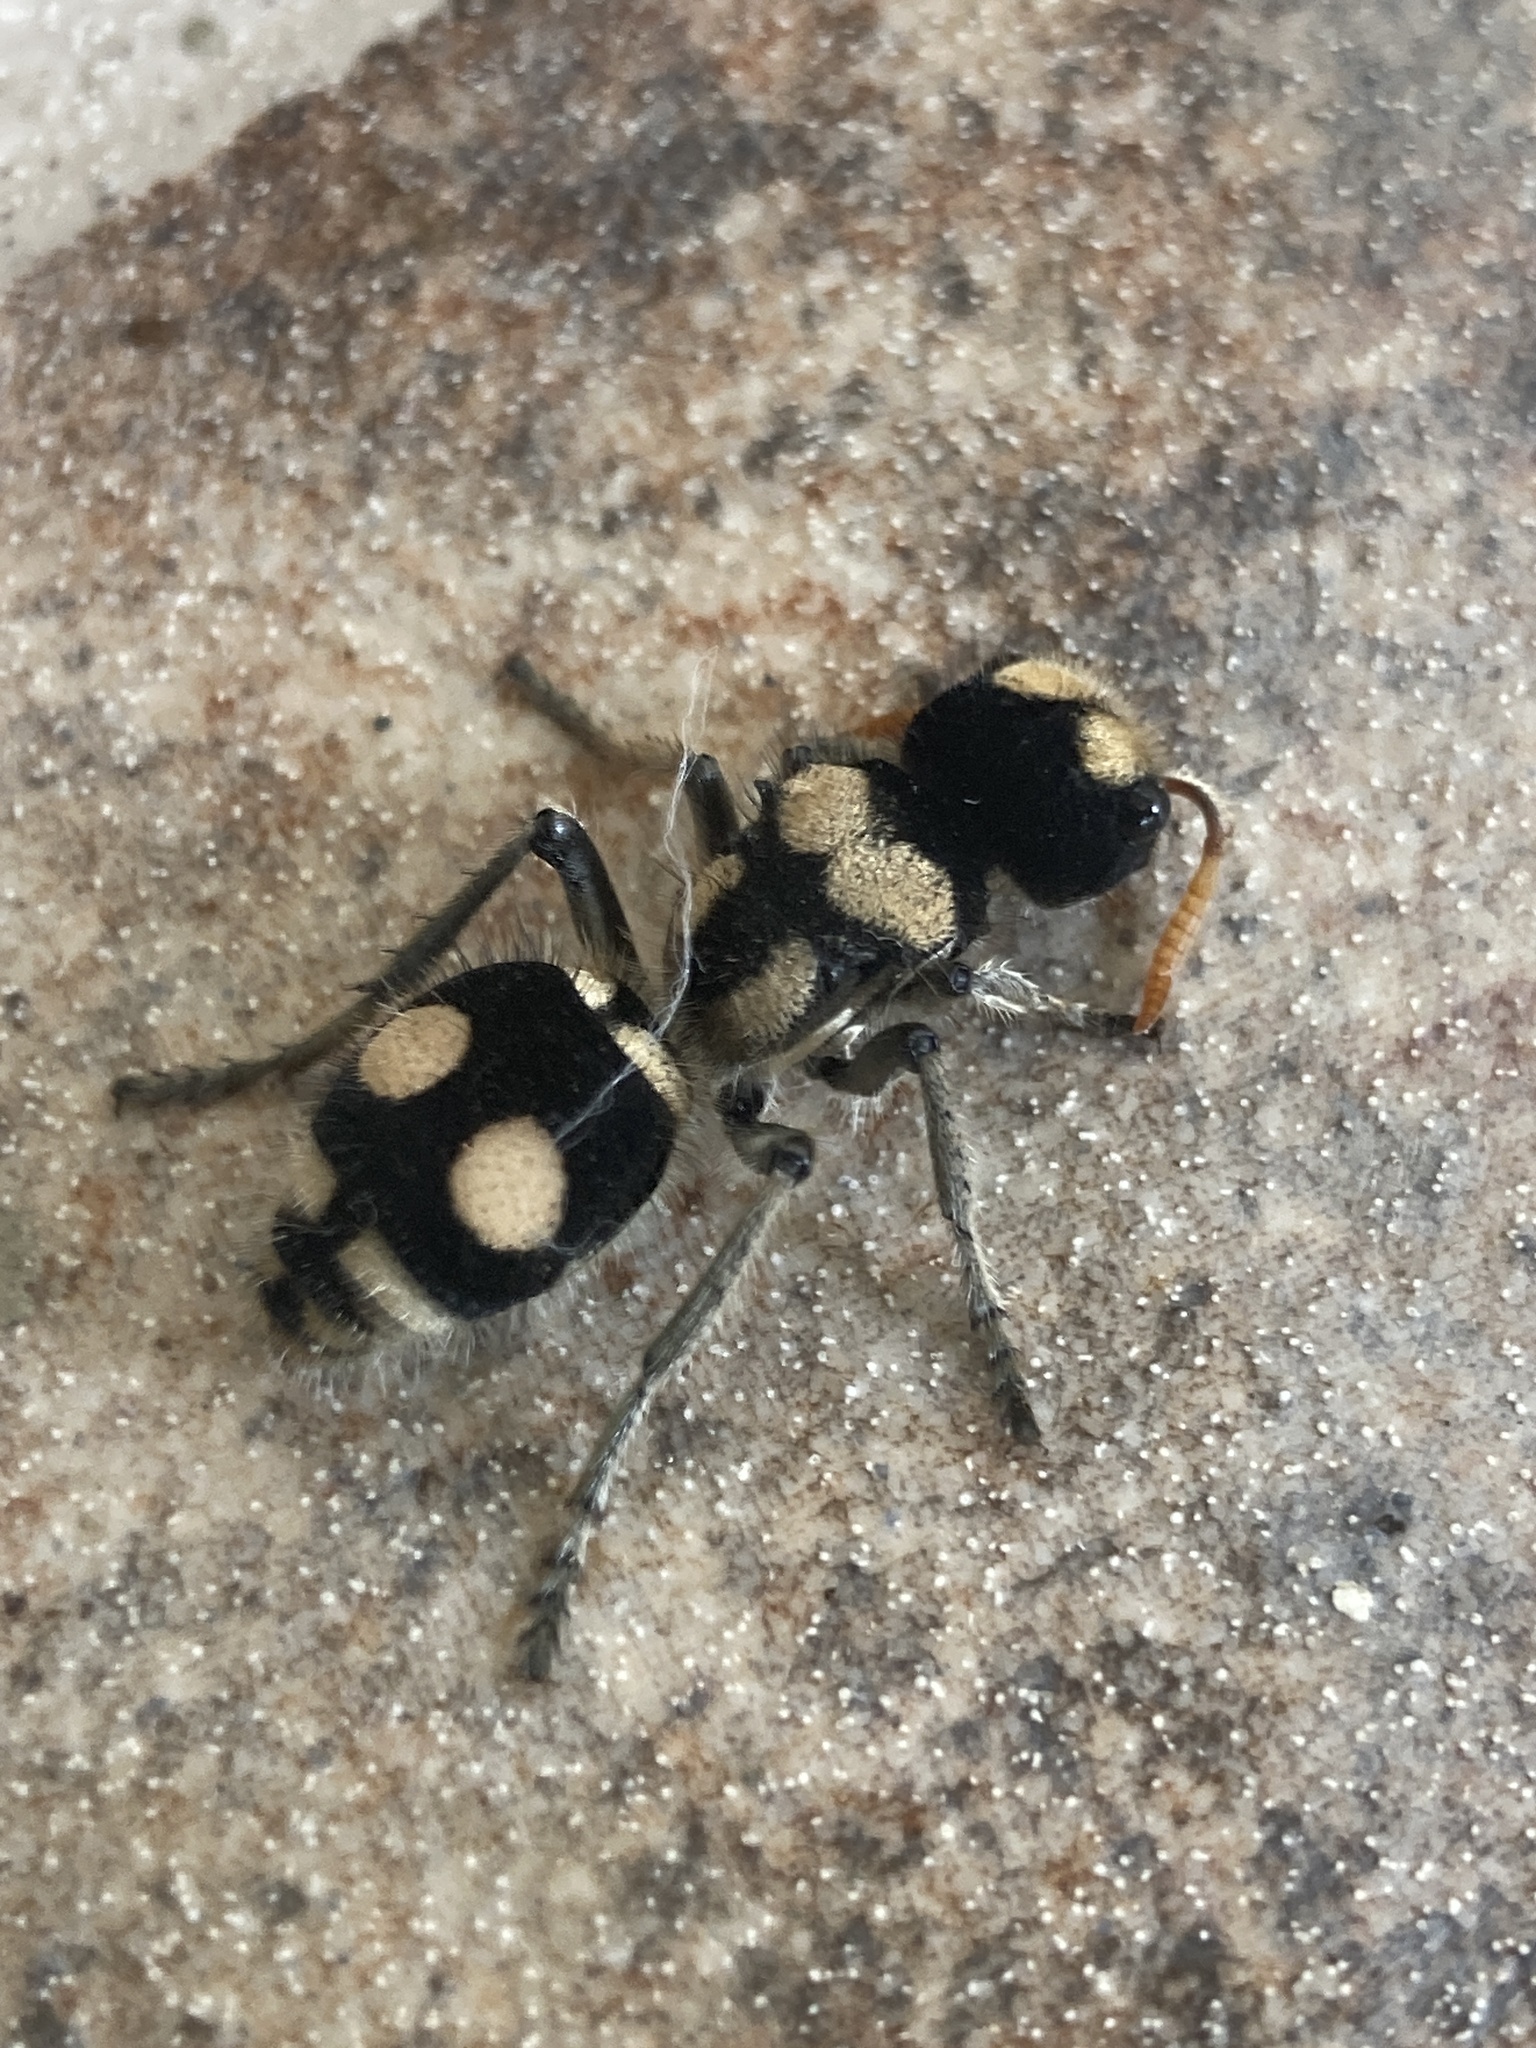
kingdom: Animalia
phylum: Arthropoda
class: Insecta
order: Hymenoptera
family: Mutillidae
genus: Hoplomutilla
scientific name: Hoplomutilla
